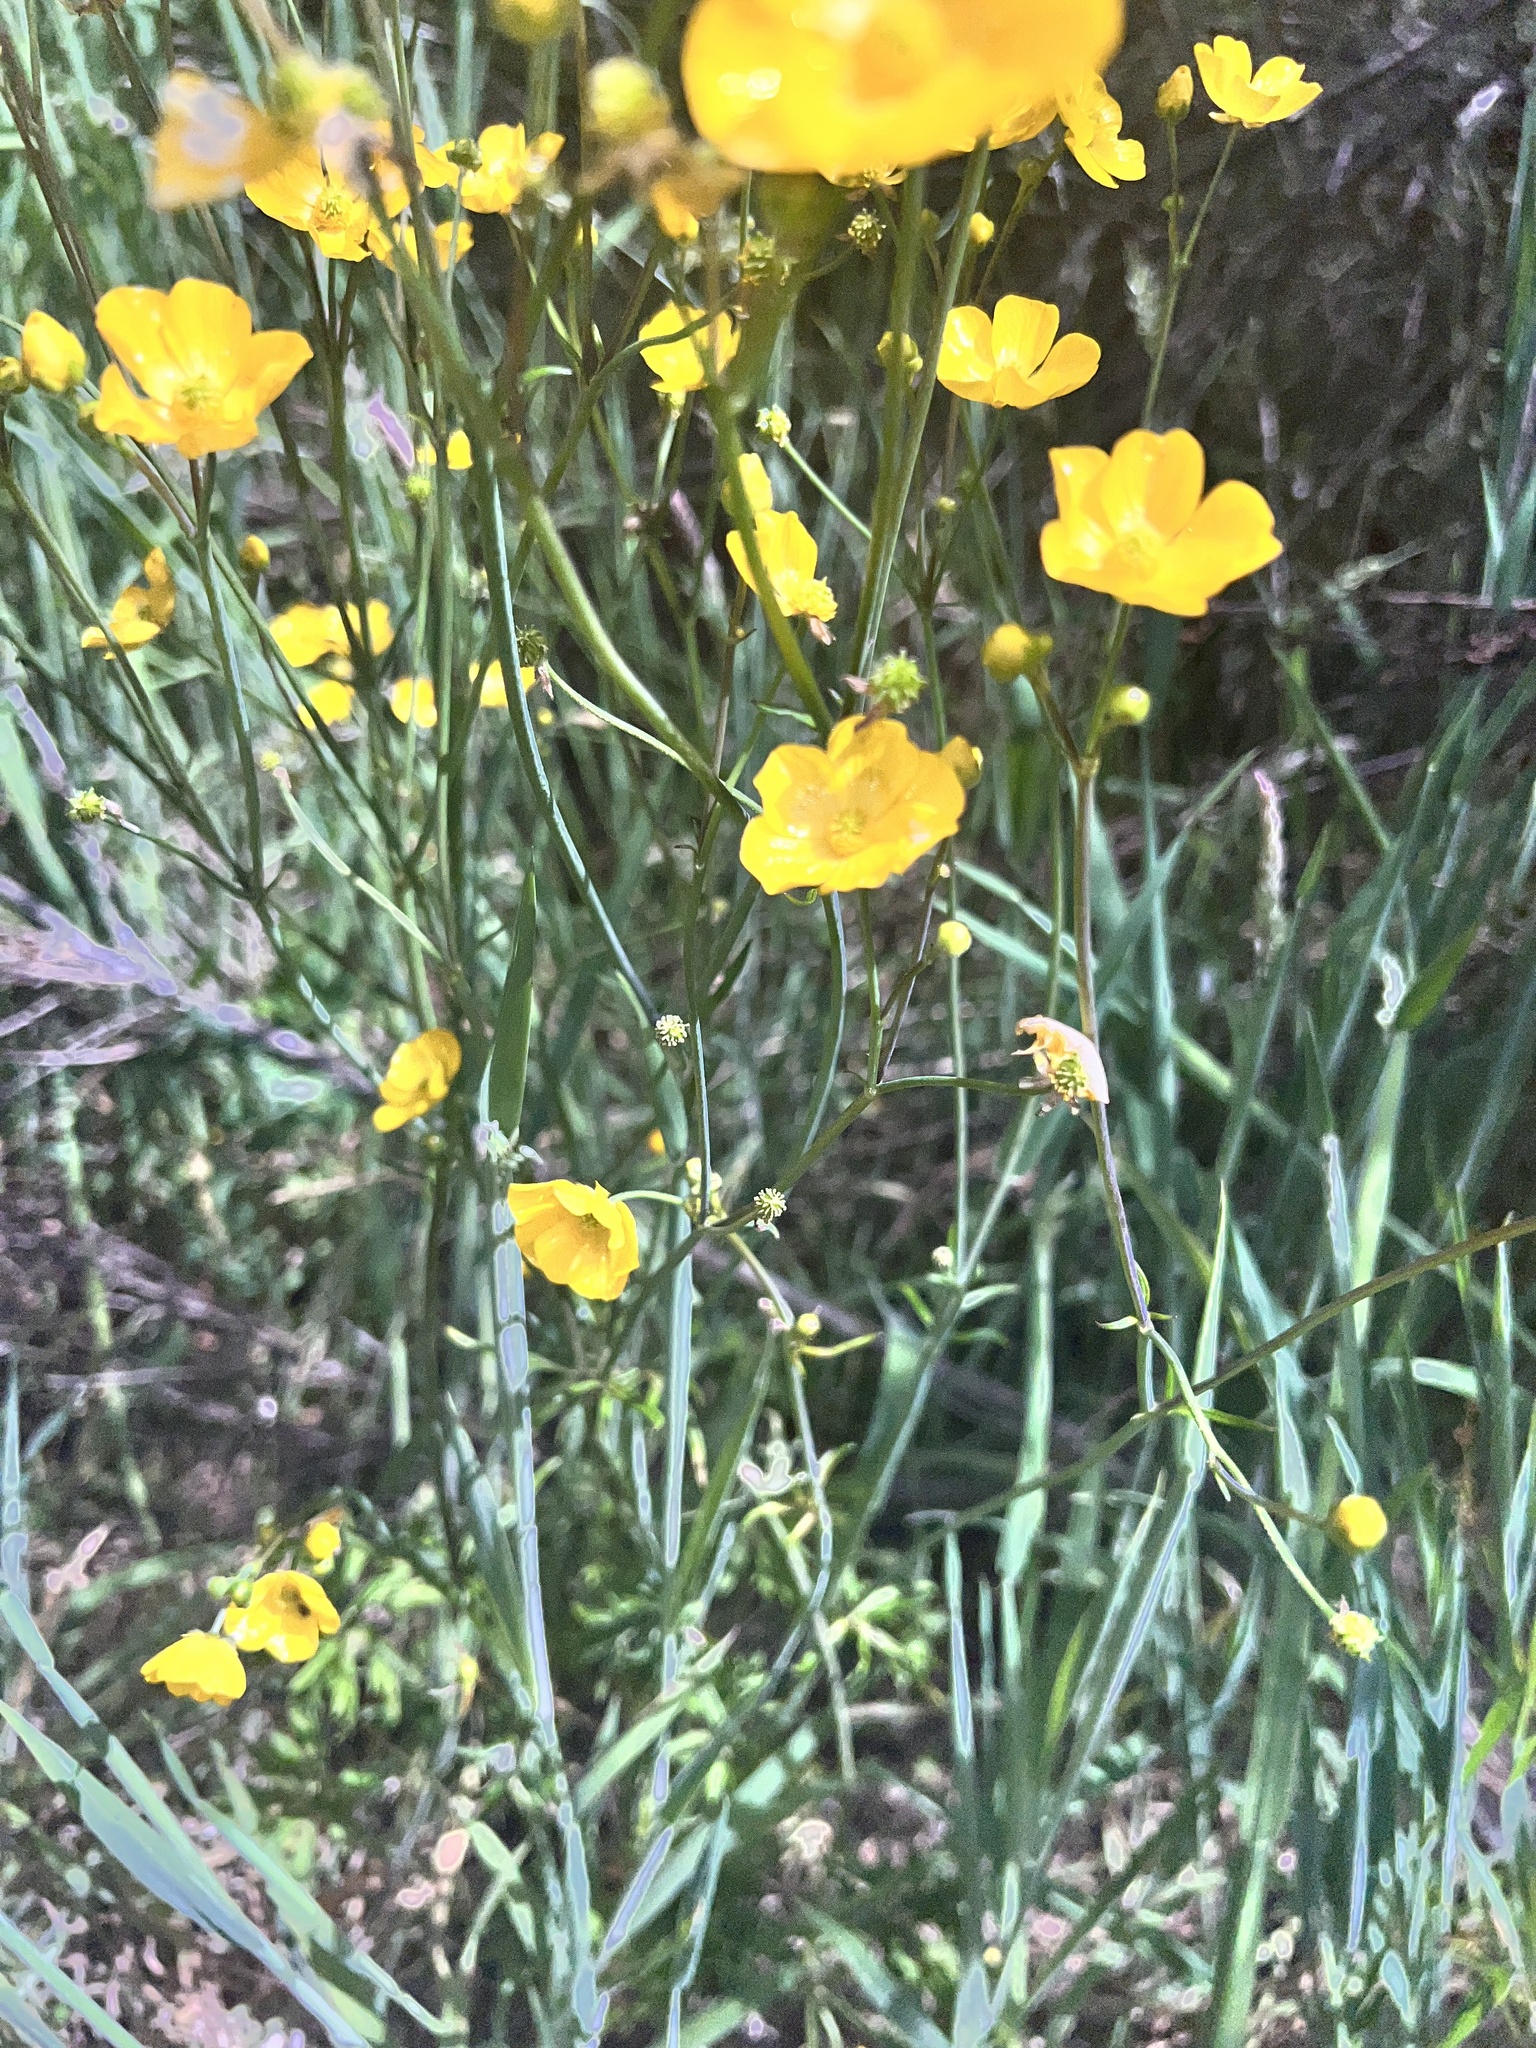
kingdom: Plantae
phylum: Tracheophyta
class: Magnoliopsida
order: Ranunculales
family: Ranunculaceae
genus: Ranunculus
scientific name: Ranunculus acris
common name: Meadow buttercup
